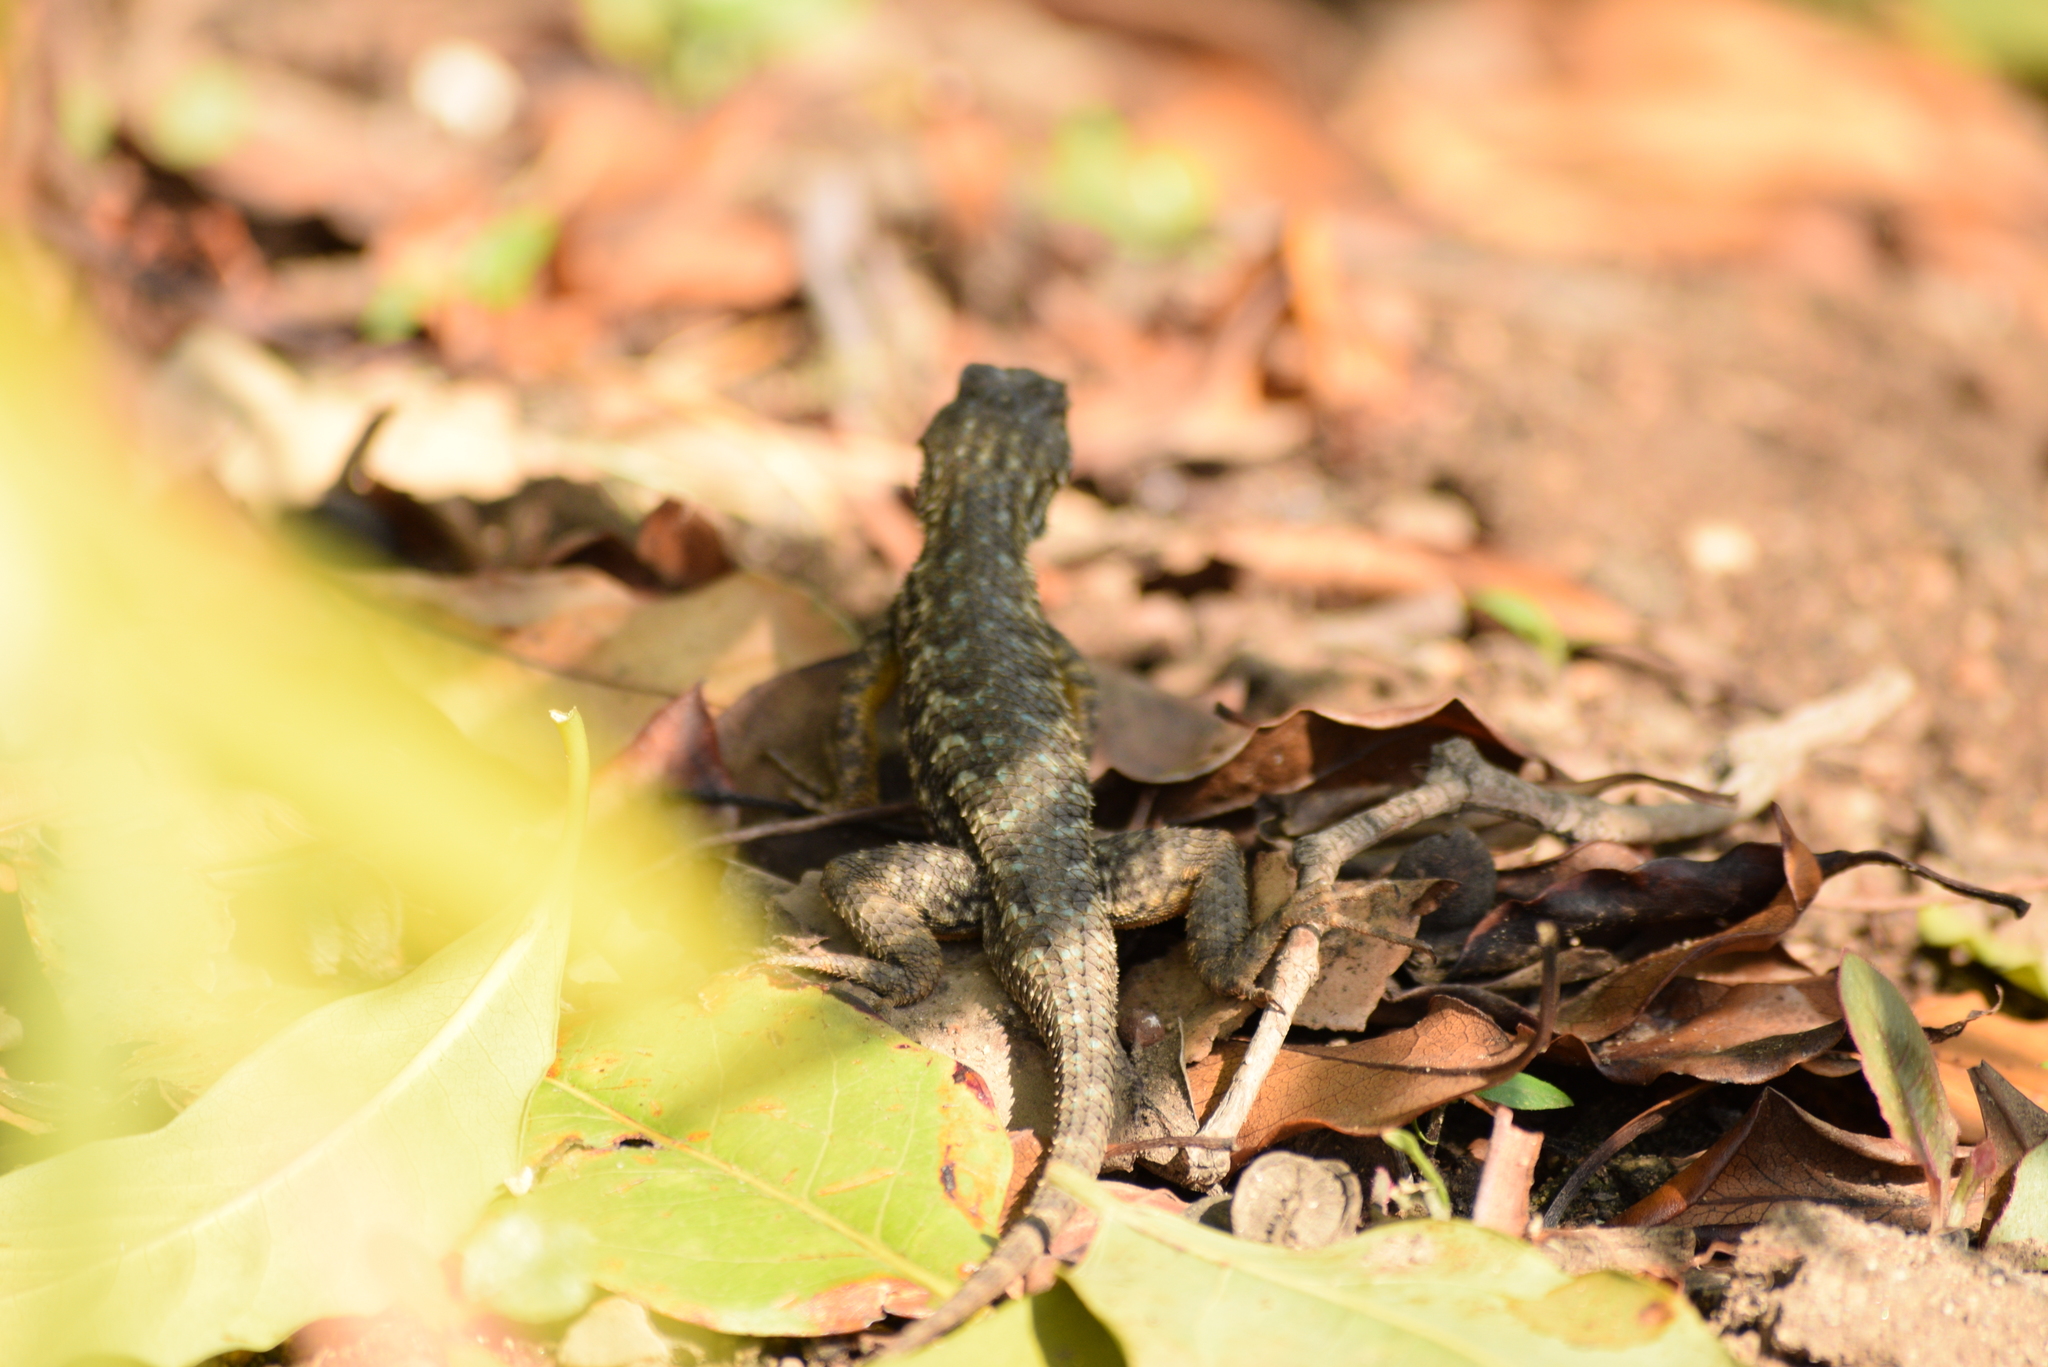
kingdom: Animalia
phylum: Chordata
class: Squamata
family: Phrynosomatidae
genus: Sceloporus
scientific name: Sceloporus occidentalis
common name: Western fence lizard
